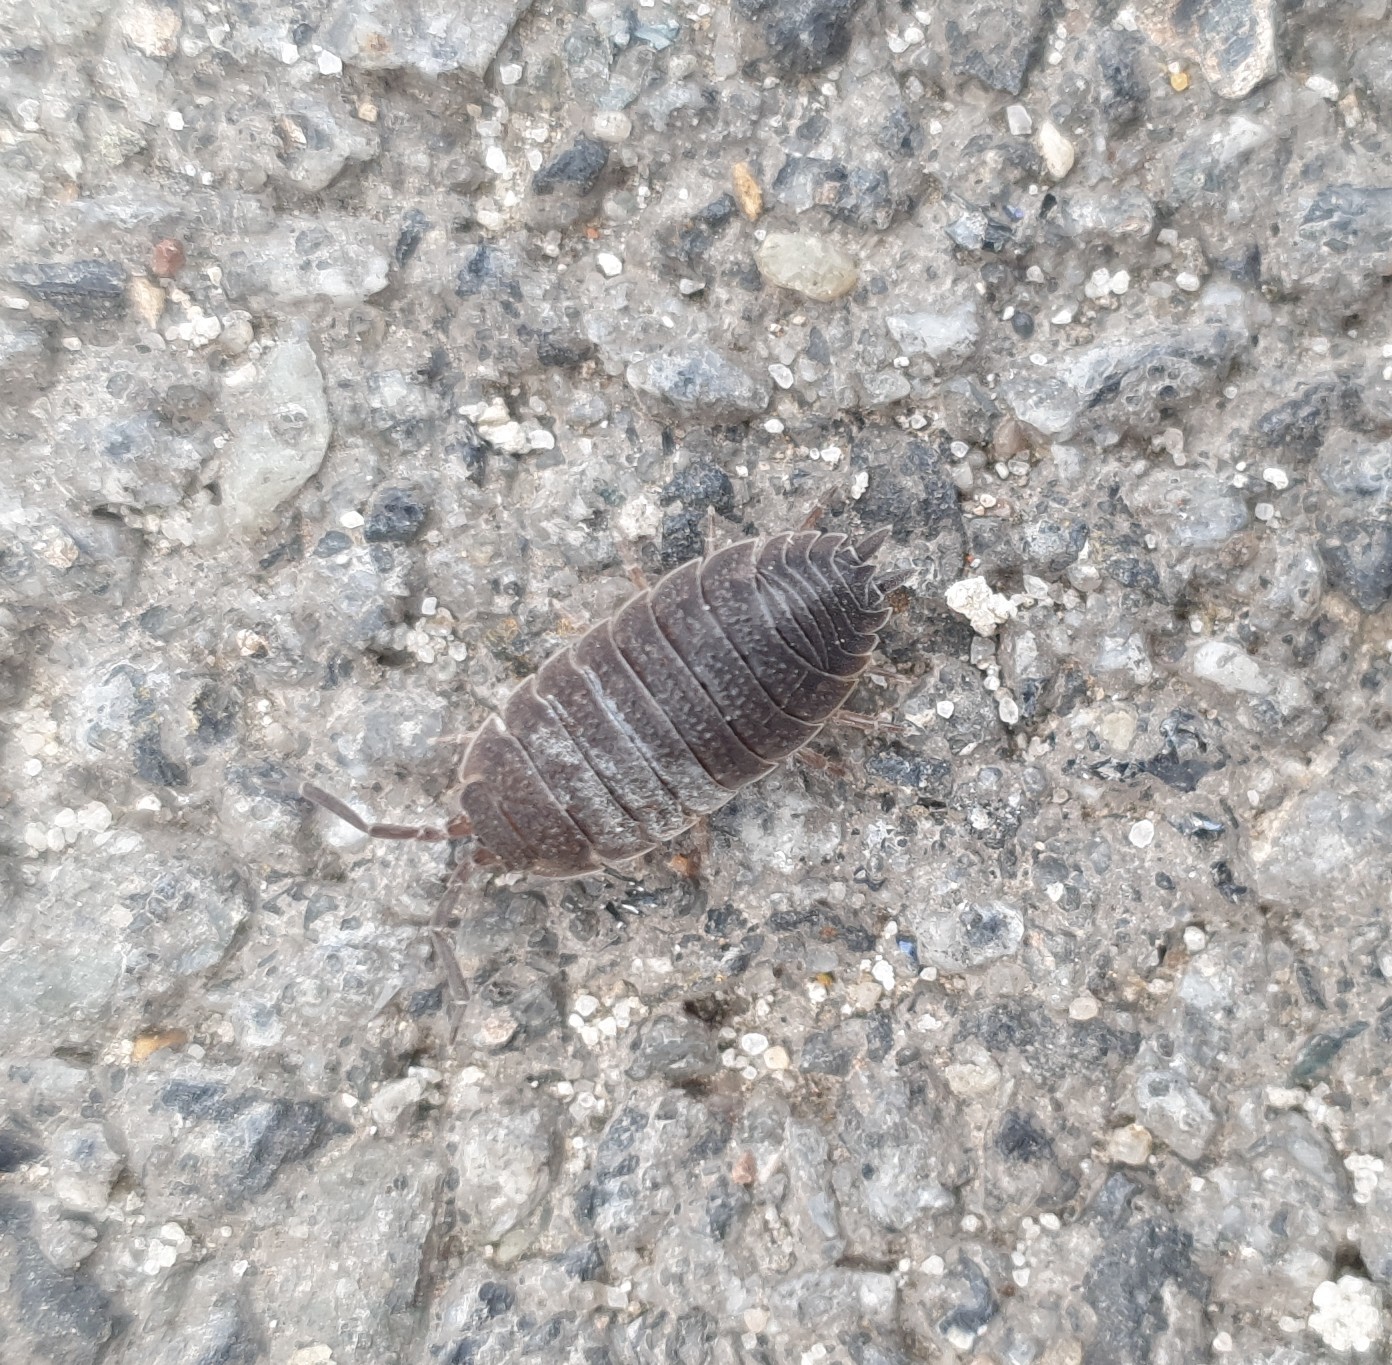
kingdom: Animalia
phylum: Arthropoda
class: Malacostraca
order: Isopoda
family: Porcellionidae
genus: Porcellio
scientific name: Porcellio scaber
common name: Common rough woodlouse
